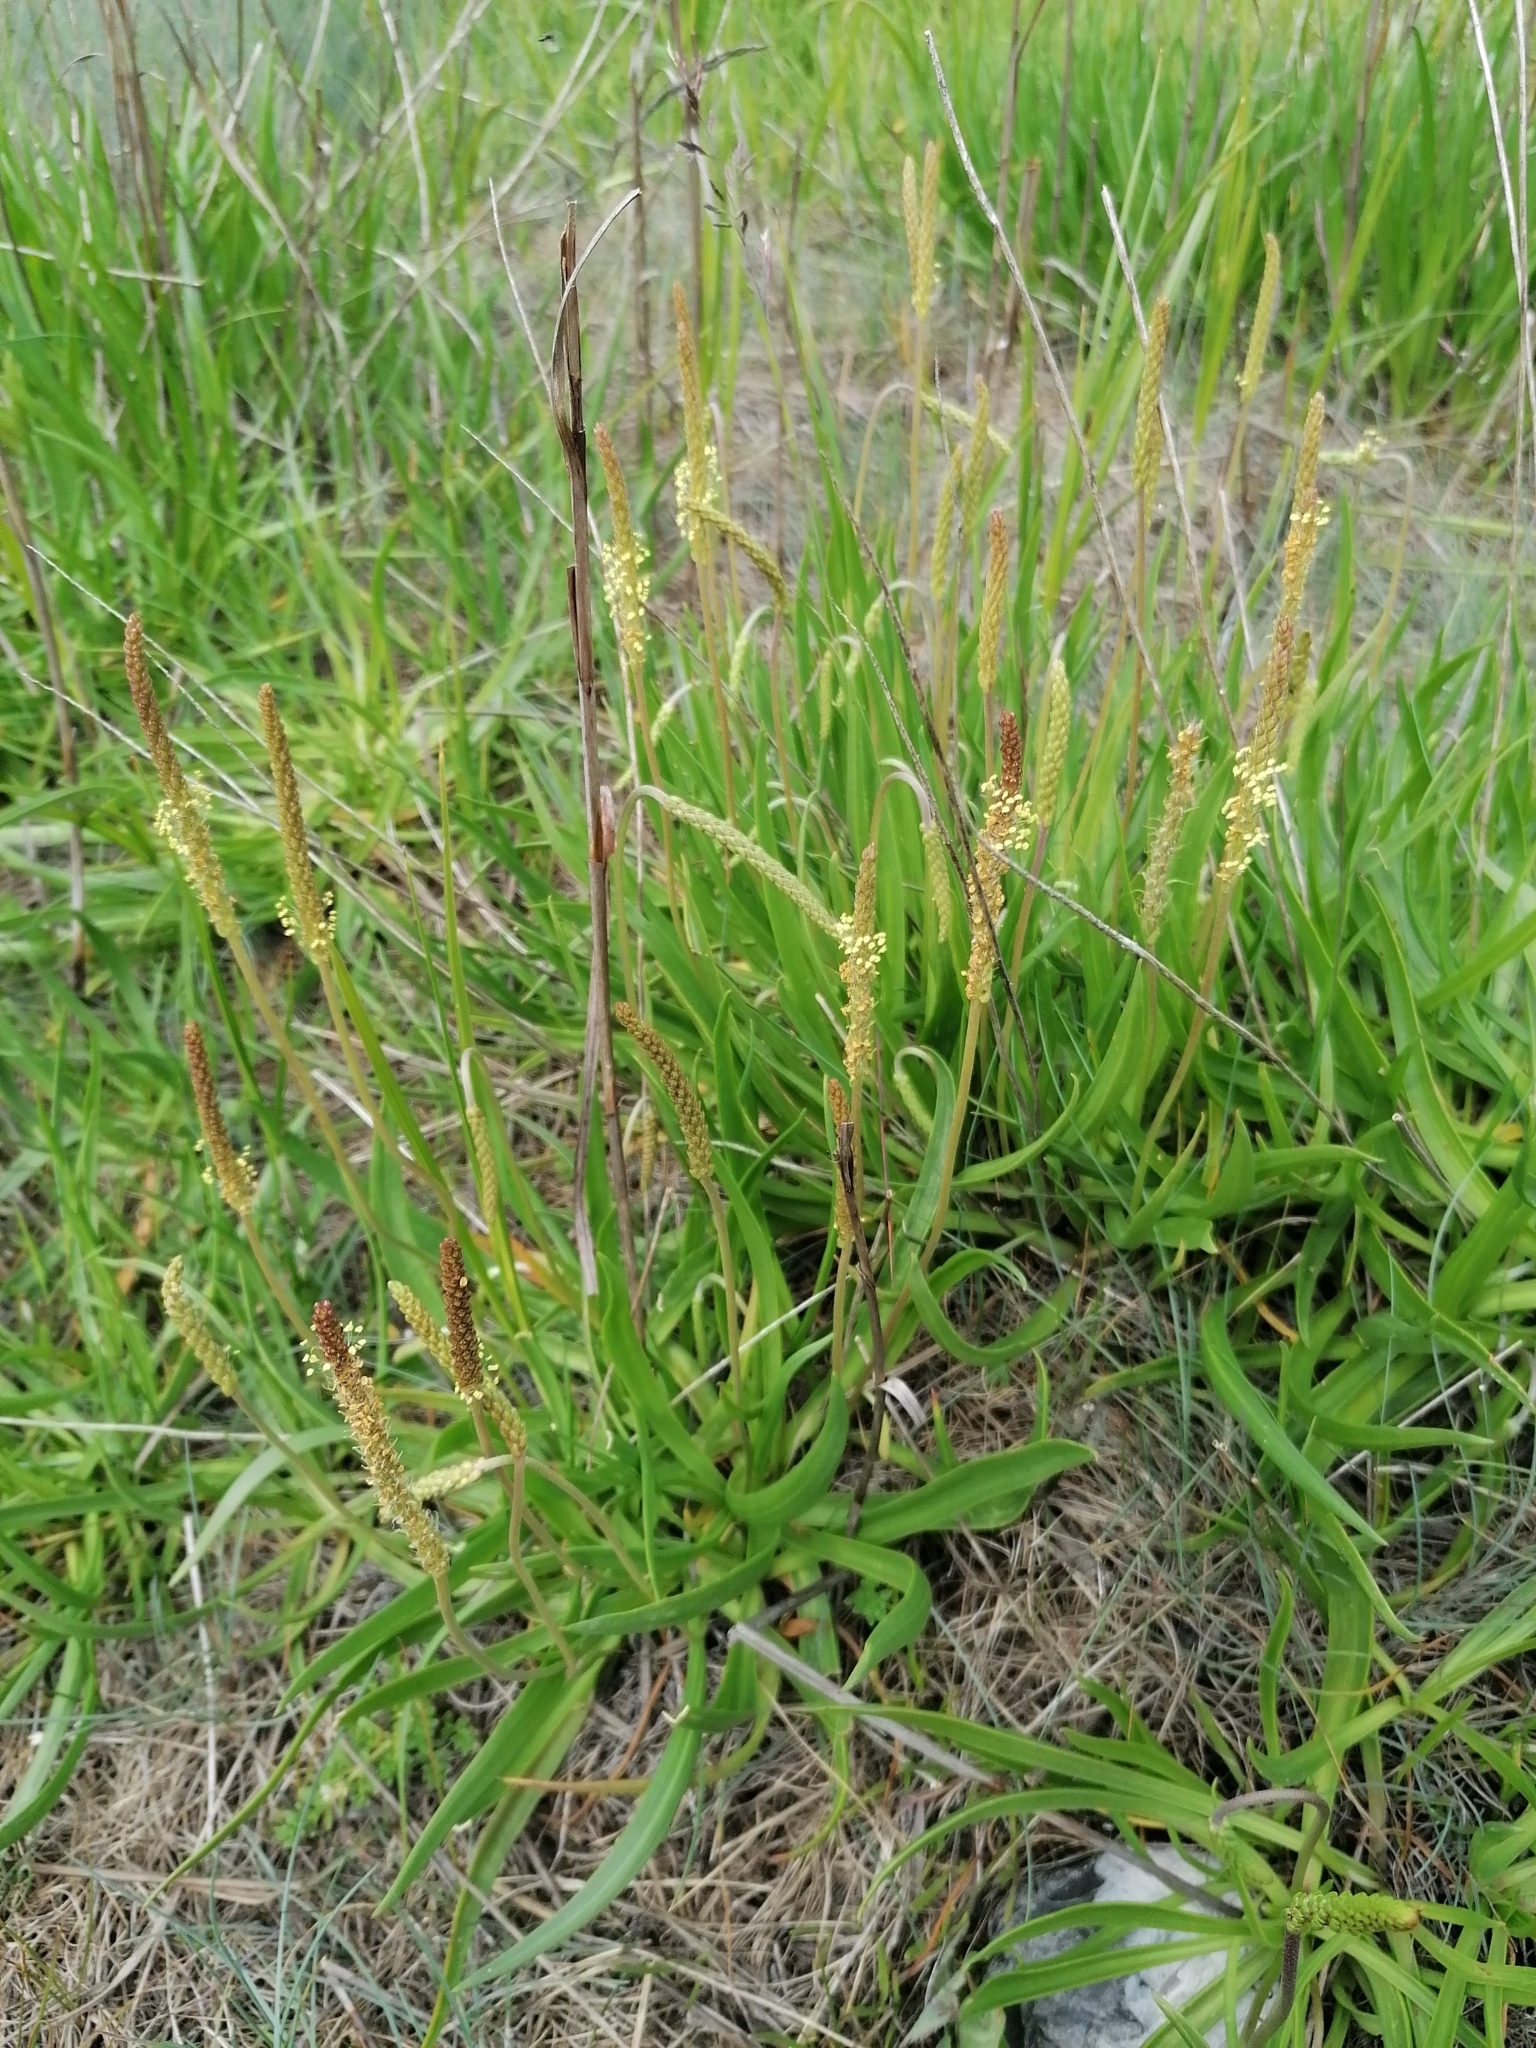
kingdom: Plantae
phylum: Tracheophyta
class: Magnoliopsida
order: Lamiales
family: Plantaginaceae
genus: Plantago
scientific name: Plantago maritima
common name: Sea plantain
